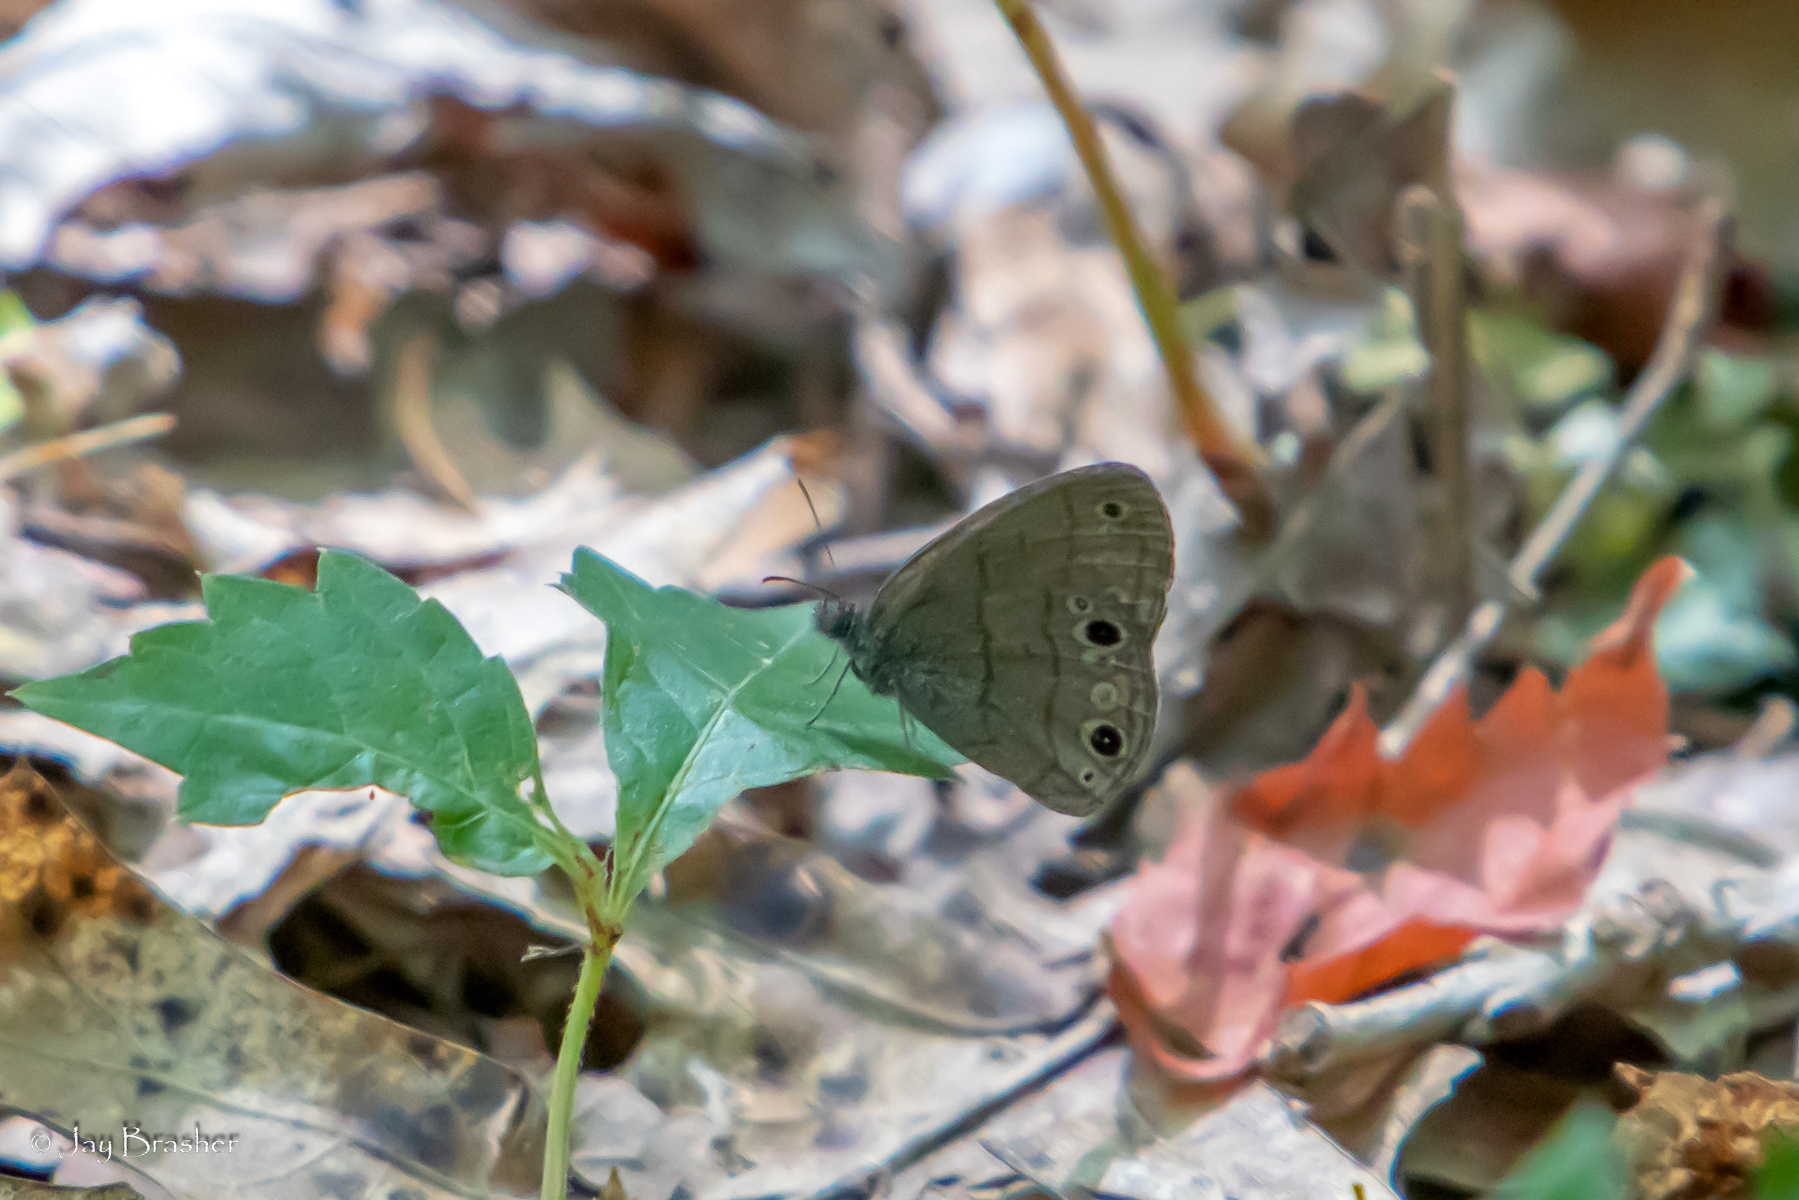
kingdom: Animalia
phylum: Arthropoda
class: Insecta
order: Lepidoptera
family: Nymphalidae
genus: Hermeuptychia
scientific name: Hermeuptychia hermes
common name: Hermes satyr
